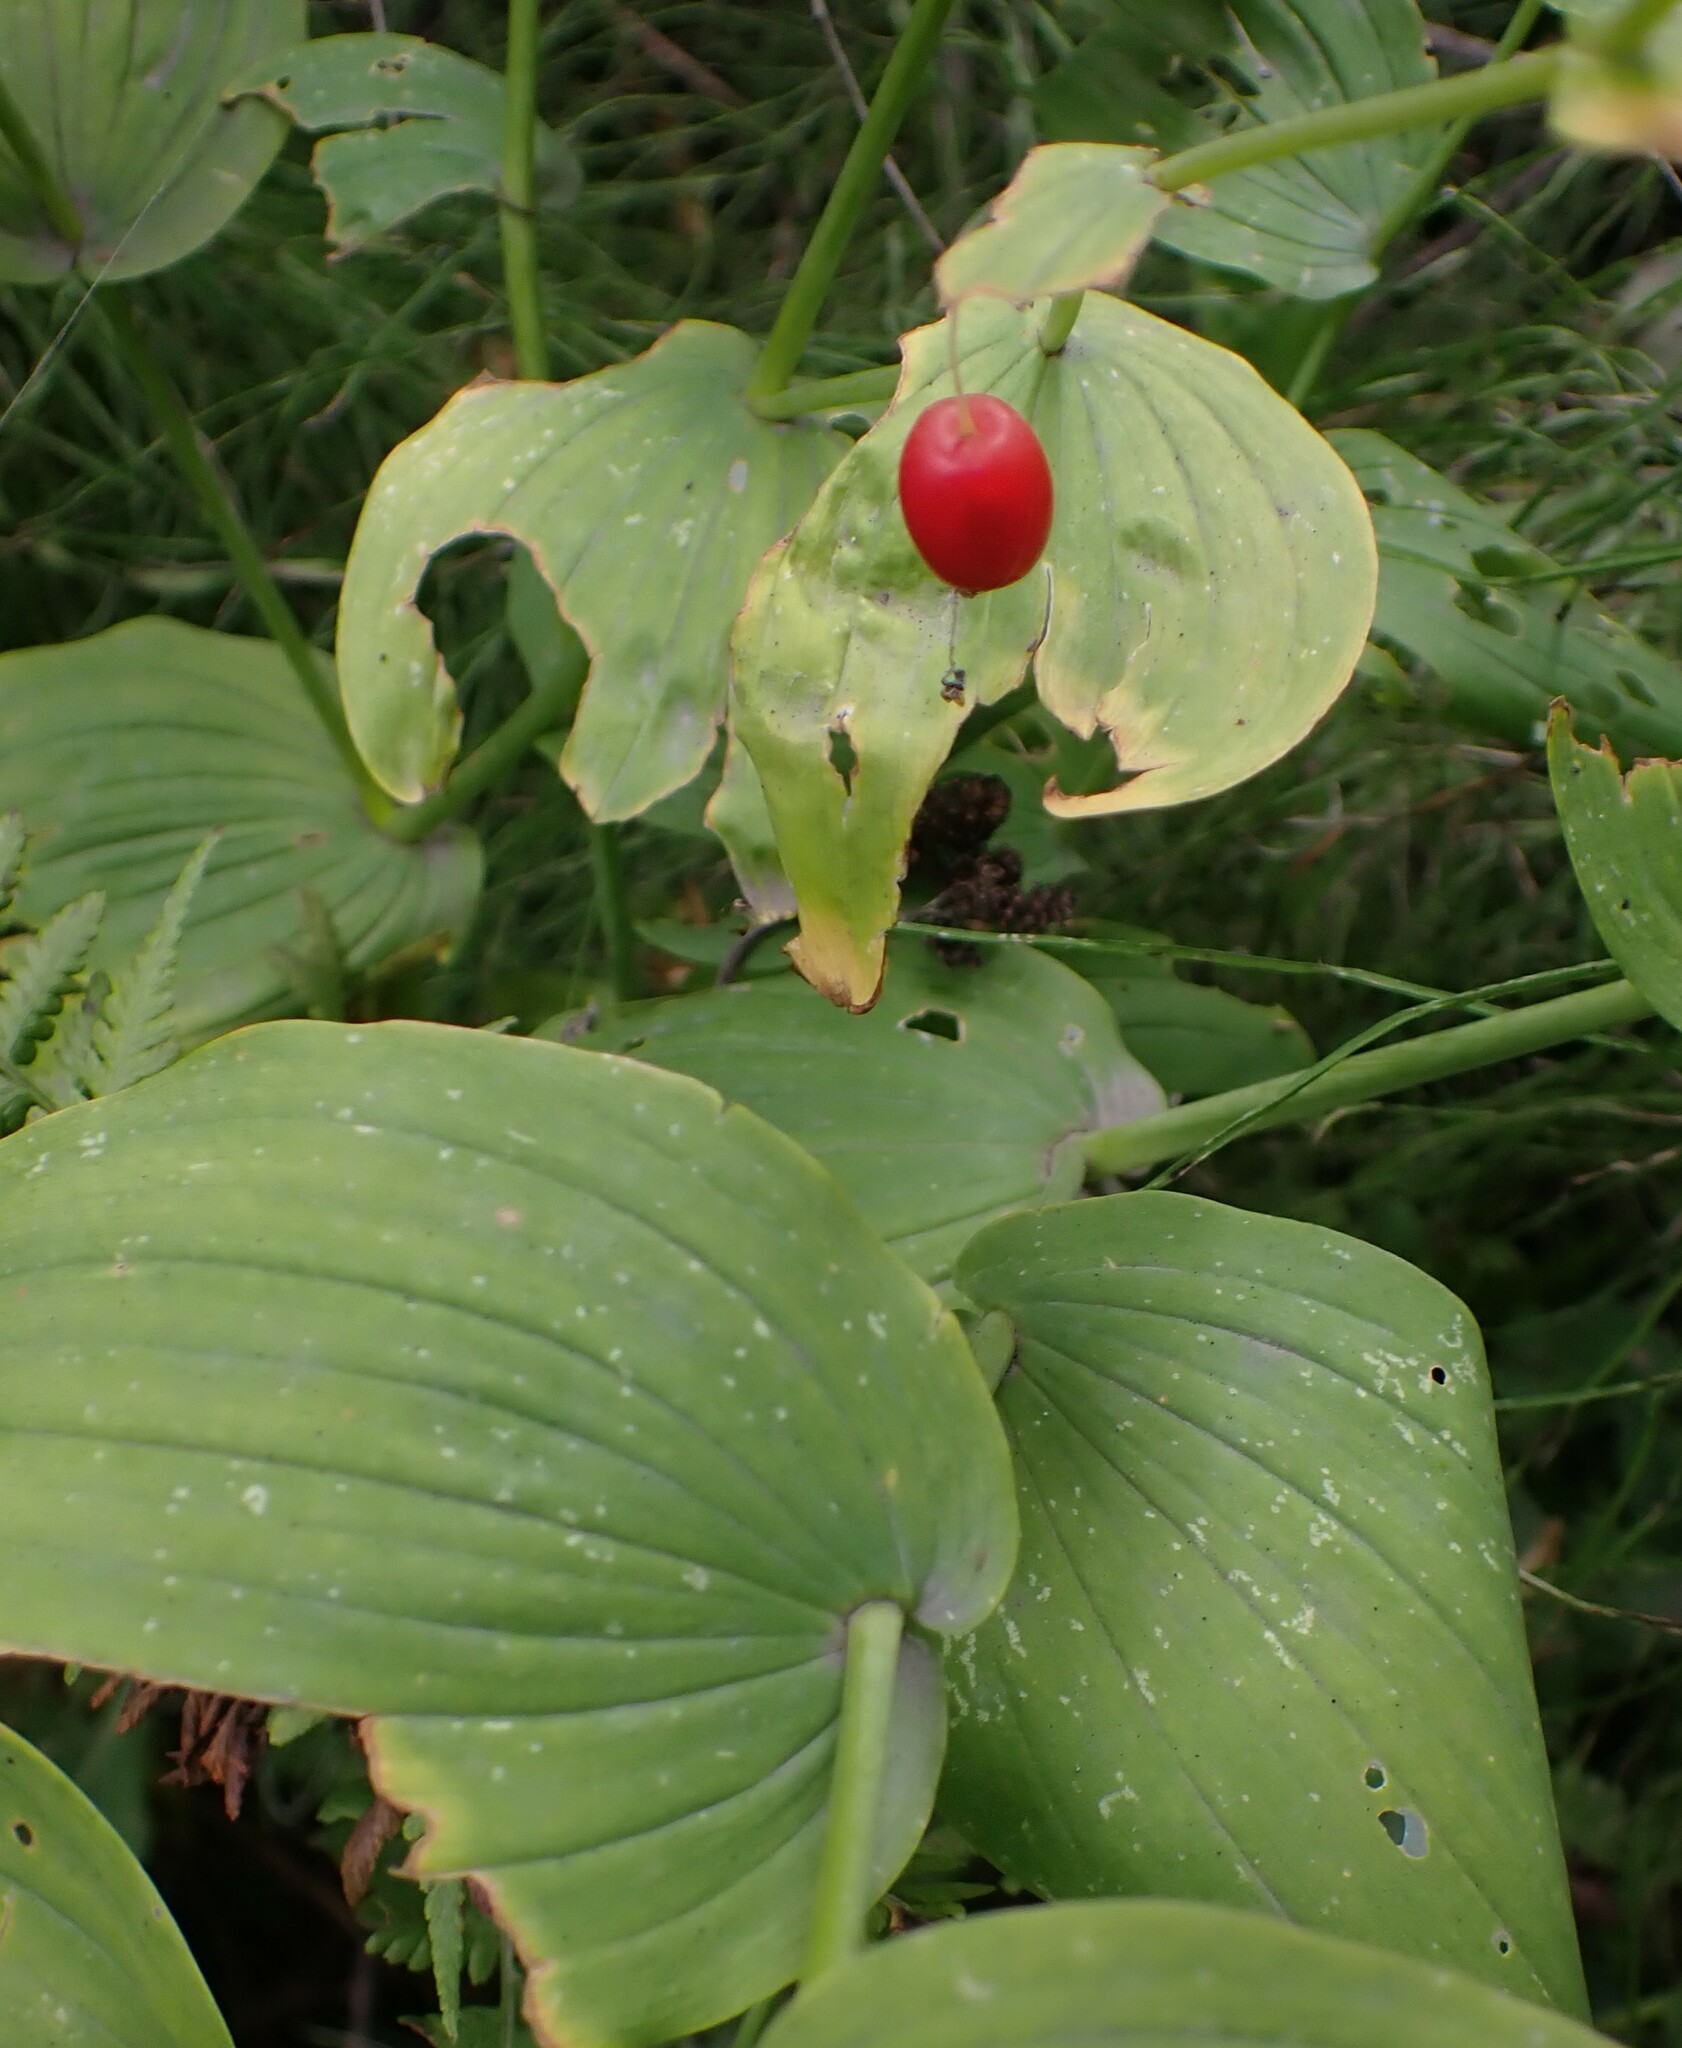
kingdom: Plantae
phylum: Tracheophyta
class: Liliopsida
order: Liliales
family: Liliaceae
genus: Streptopus
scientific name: Streptopus amplexifolius
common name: Clasp twisted stalk
